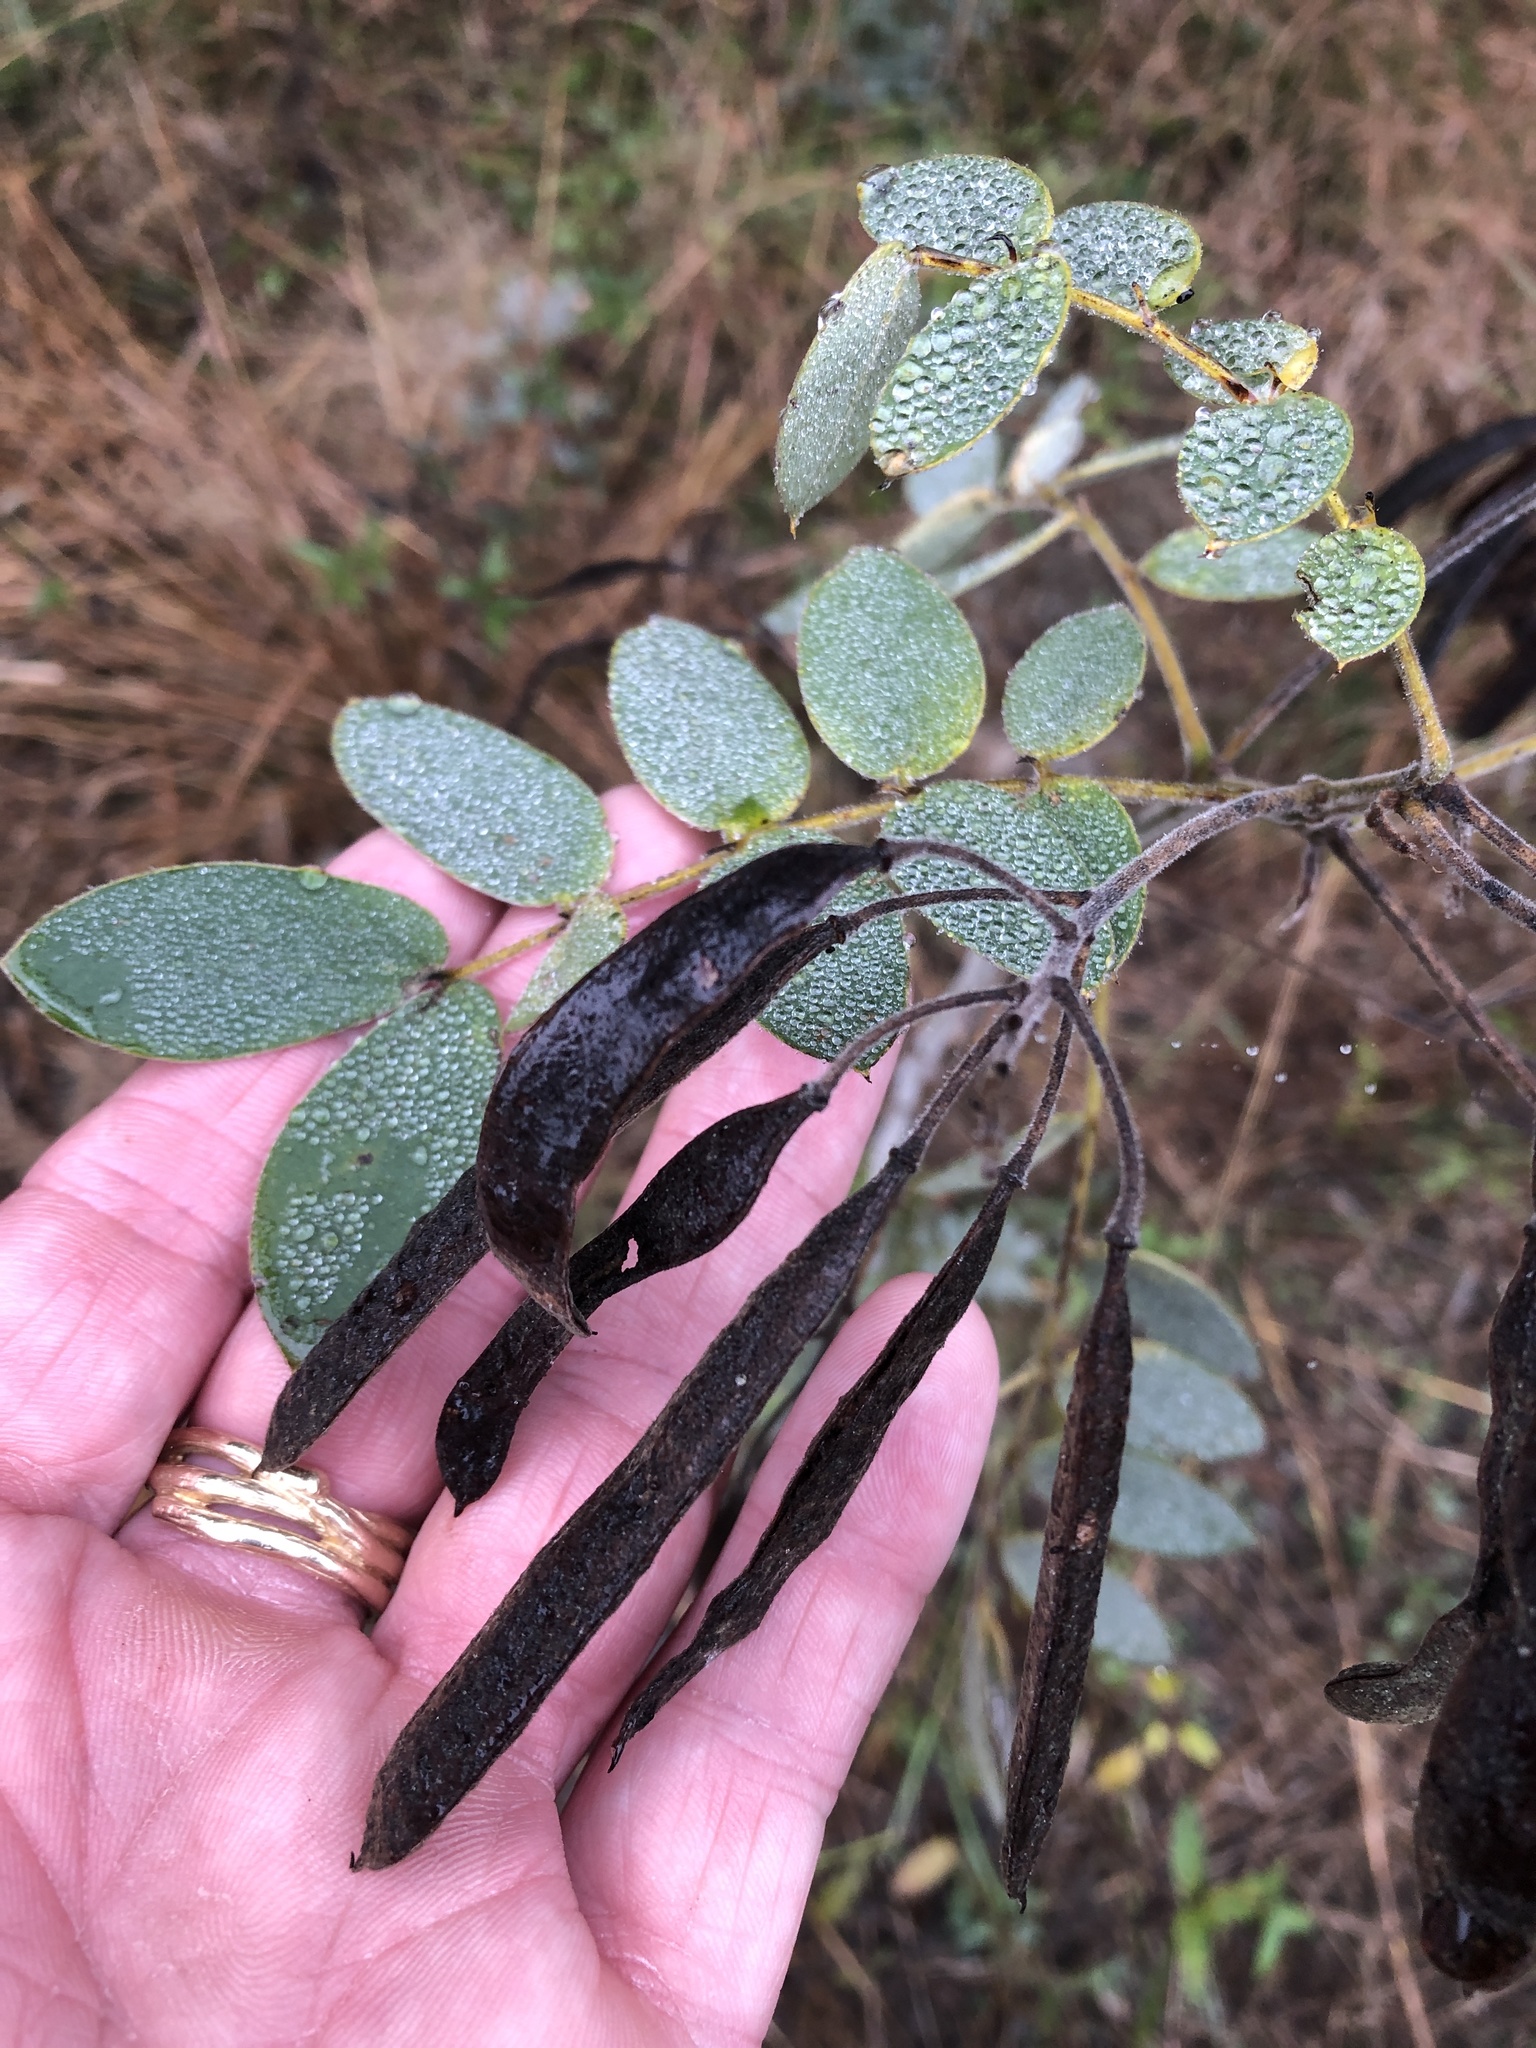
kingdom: Plantae
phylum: Tracheophyta
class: Magnoliopsida
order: Fabales
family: Fabaceae
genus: Senna
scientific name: Senna lindheimeriana
